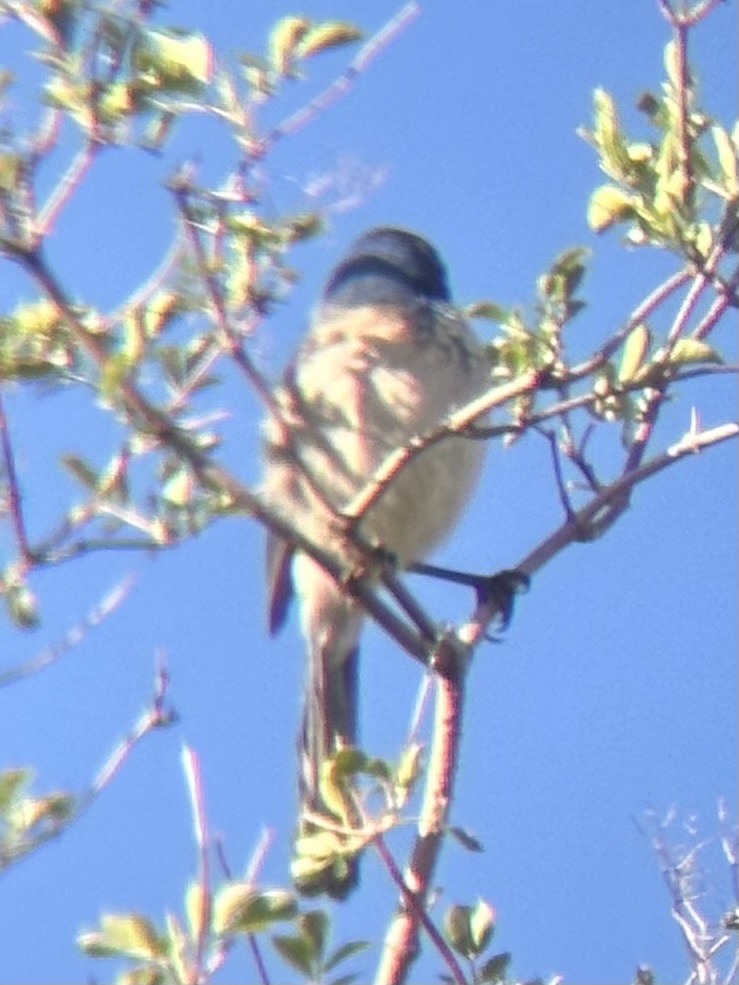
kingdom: Animalia
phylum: Chordata
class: Aves
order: Passeriformes
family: Corvidae
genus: Aphelocoma
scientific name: Aphelocoma californica
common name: California scrub-jay
